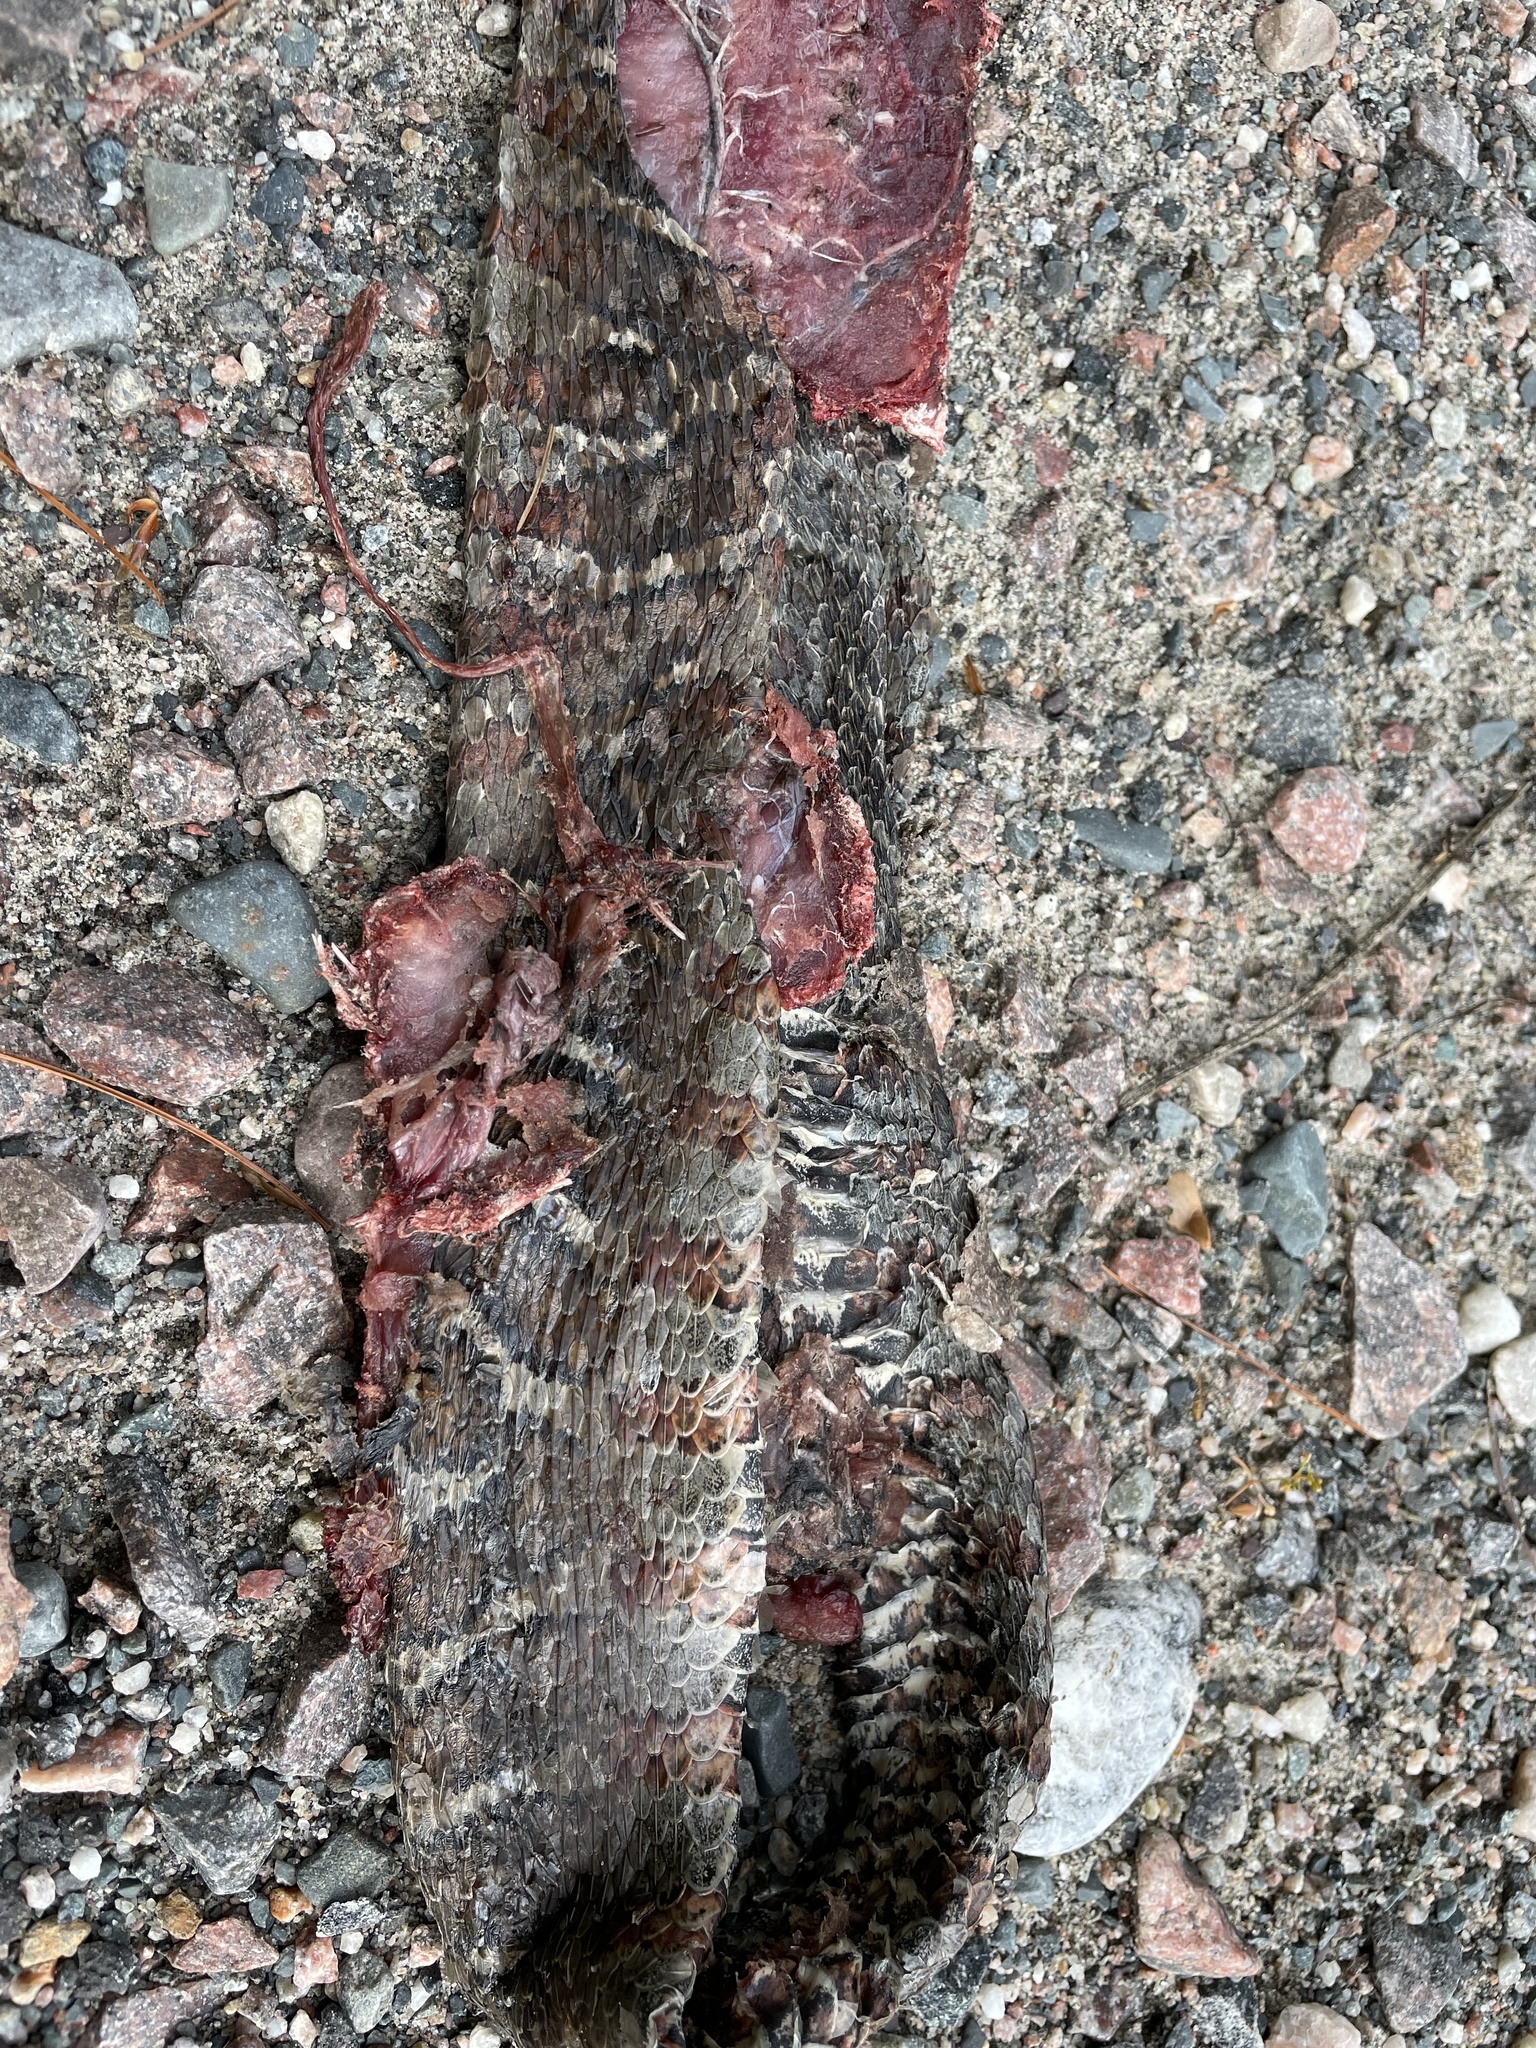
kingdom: Animalia
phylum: Chordata
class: Squamata
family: Colubridae
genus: Nerodia
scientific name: Nerodia sipedon
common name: Northern water snake
